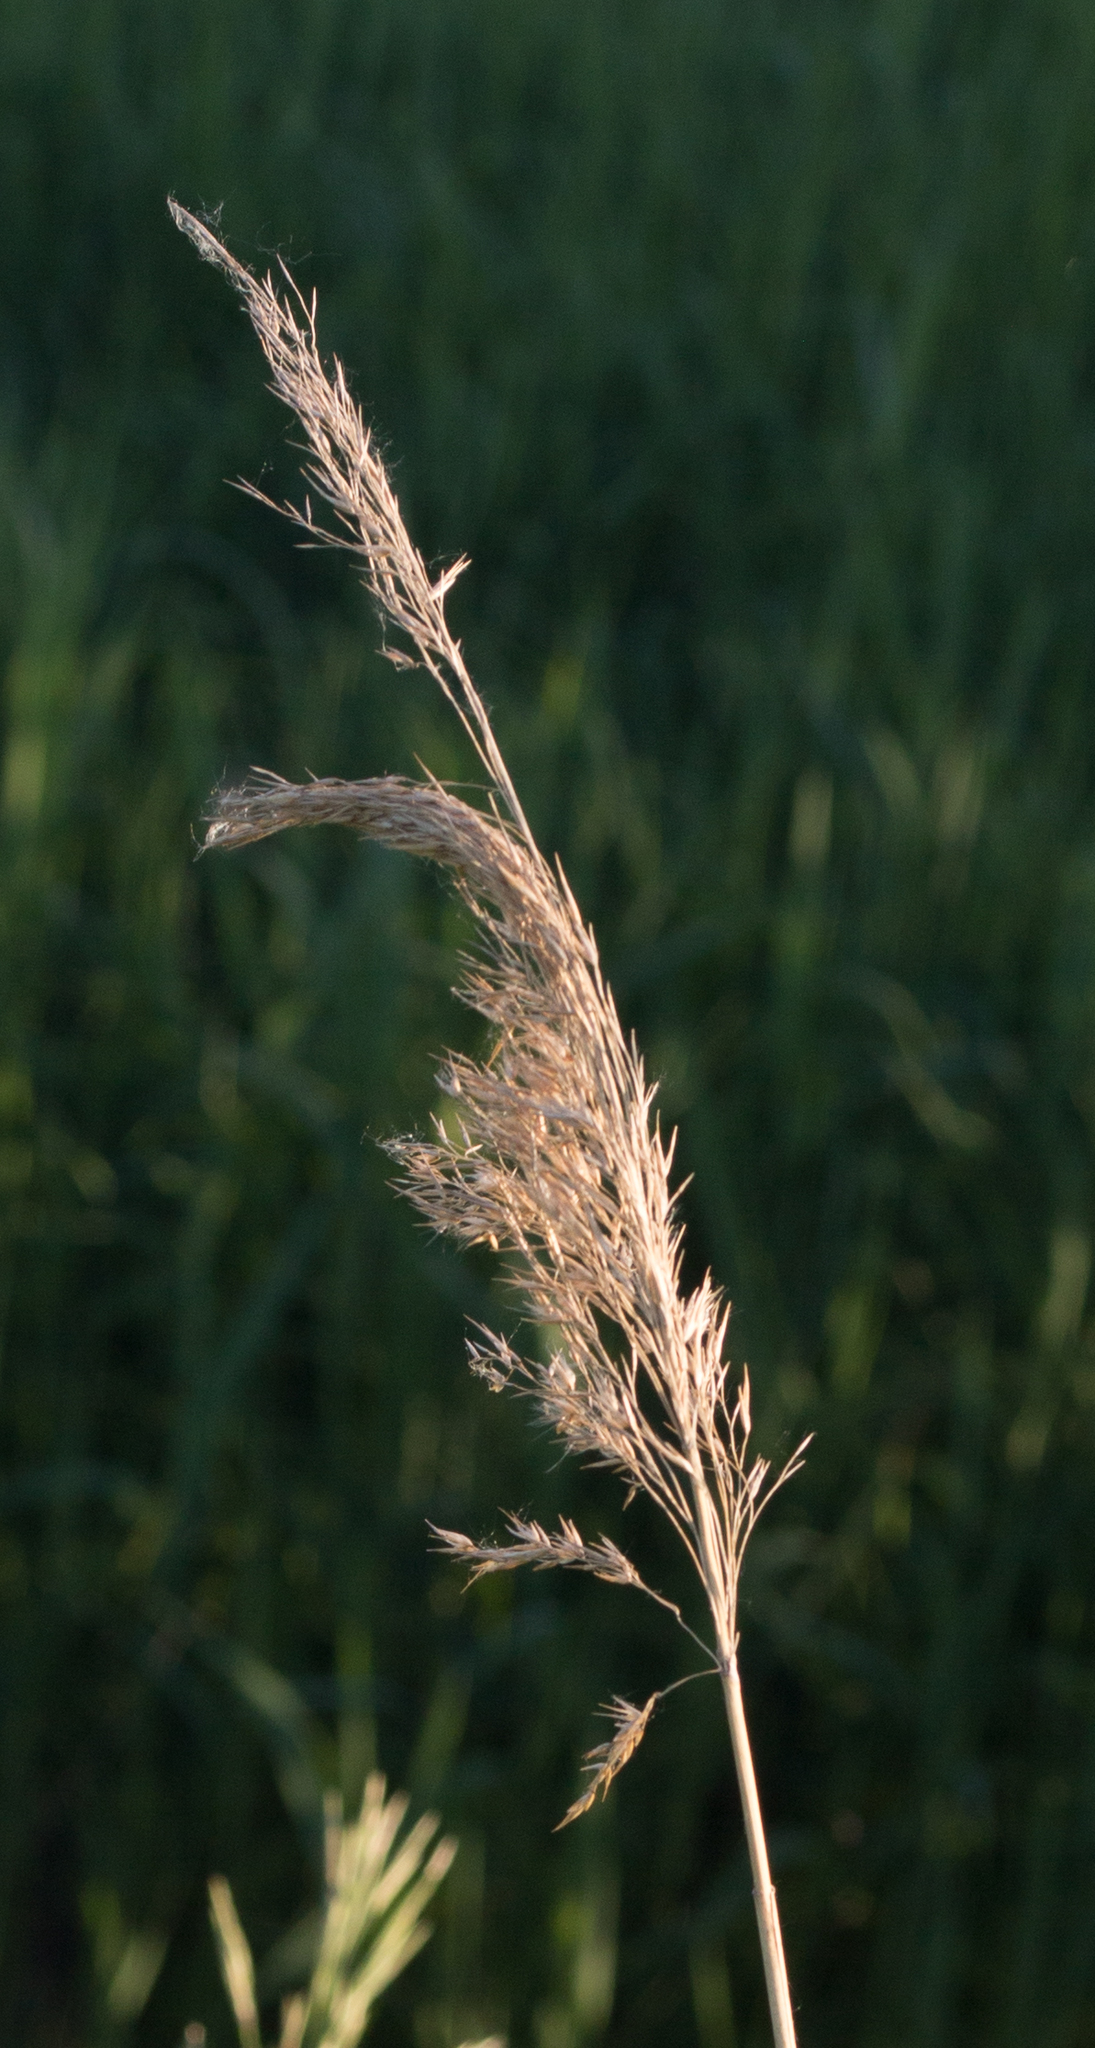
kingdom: Plantae
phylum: Tracheophyta
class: Liliopsida
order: Poales
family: Poaceae
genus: Phragmites
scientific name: Phragmites australis
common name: Common reed
